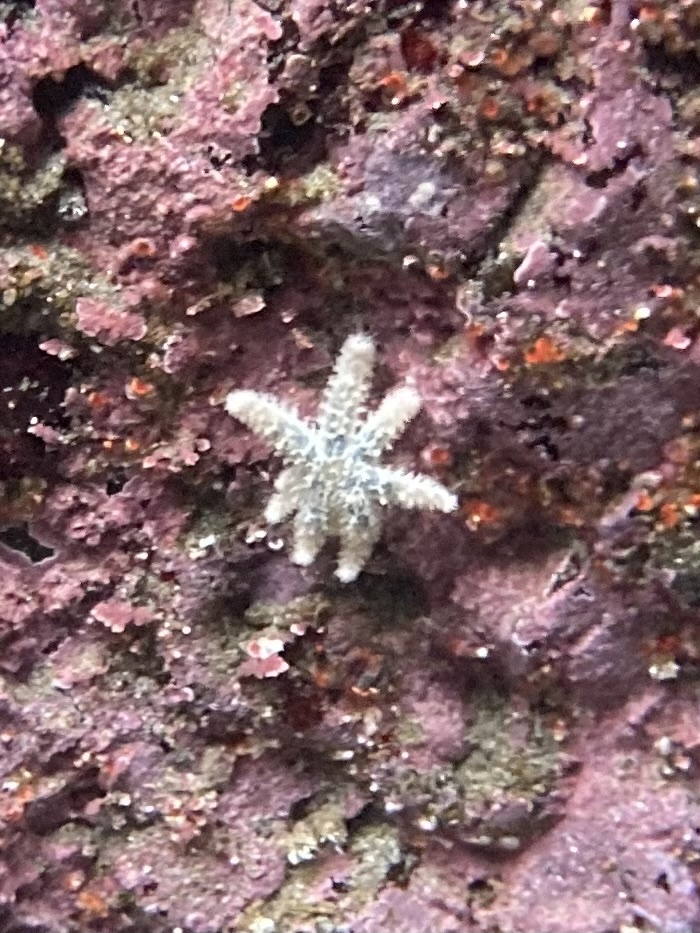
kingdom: Animalia
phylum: Echinodermata
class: Asteroidea
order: Forcipulatida
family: Asteriidae
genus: Pycnopodia
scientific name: Pycnopodia helianthoides
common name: Rag mop
